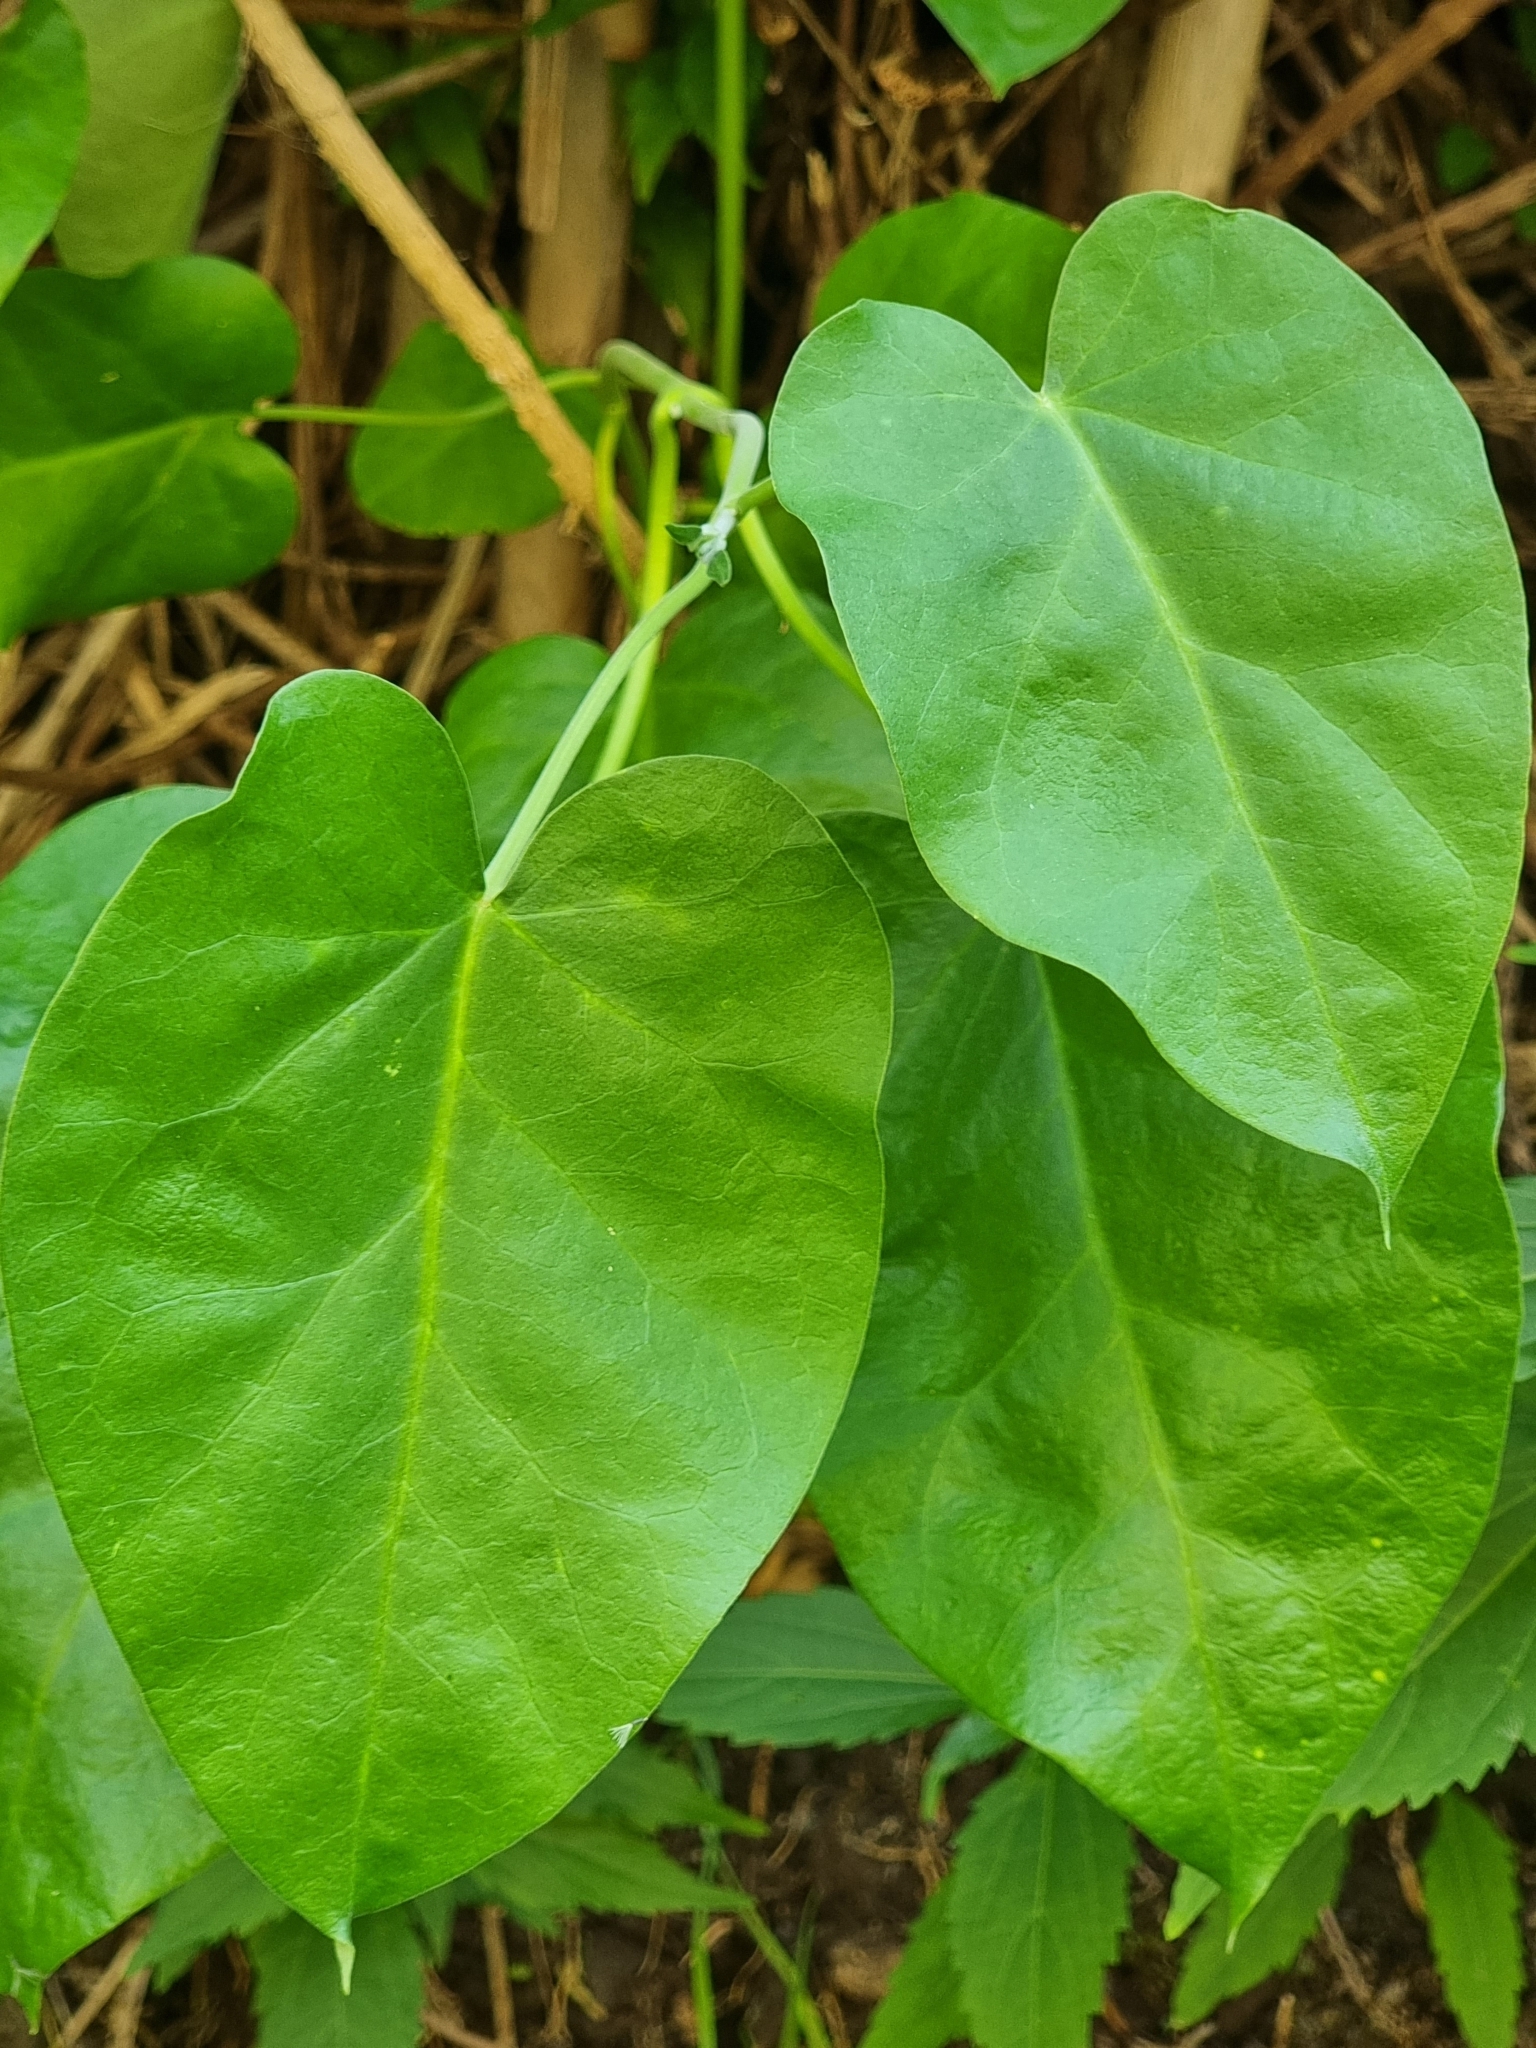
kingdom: Plantae
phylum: Tracheophyta
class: Magnoliopsida
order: Gentianales
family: Apocynaceae
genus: Araujia
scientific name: Araujia sericifera
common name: White bladderflower
